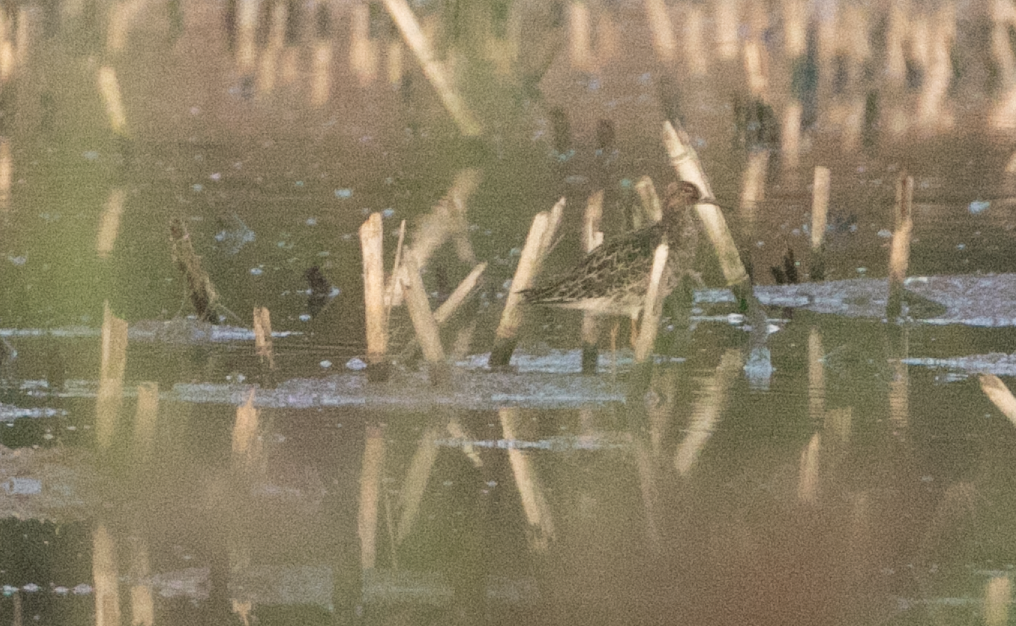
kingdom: Animalia
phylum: Chordata
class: Aves
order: Charadriiformes
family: Scolopacidae
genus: Calidris
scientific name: Calidris pugnax
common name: Ruff
